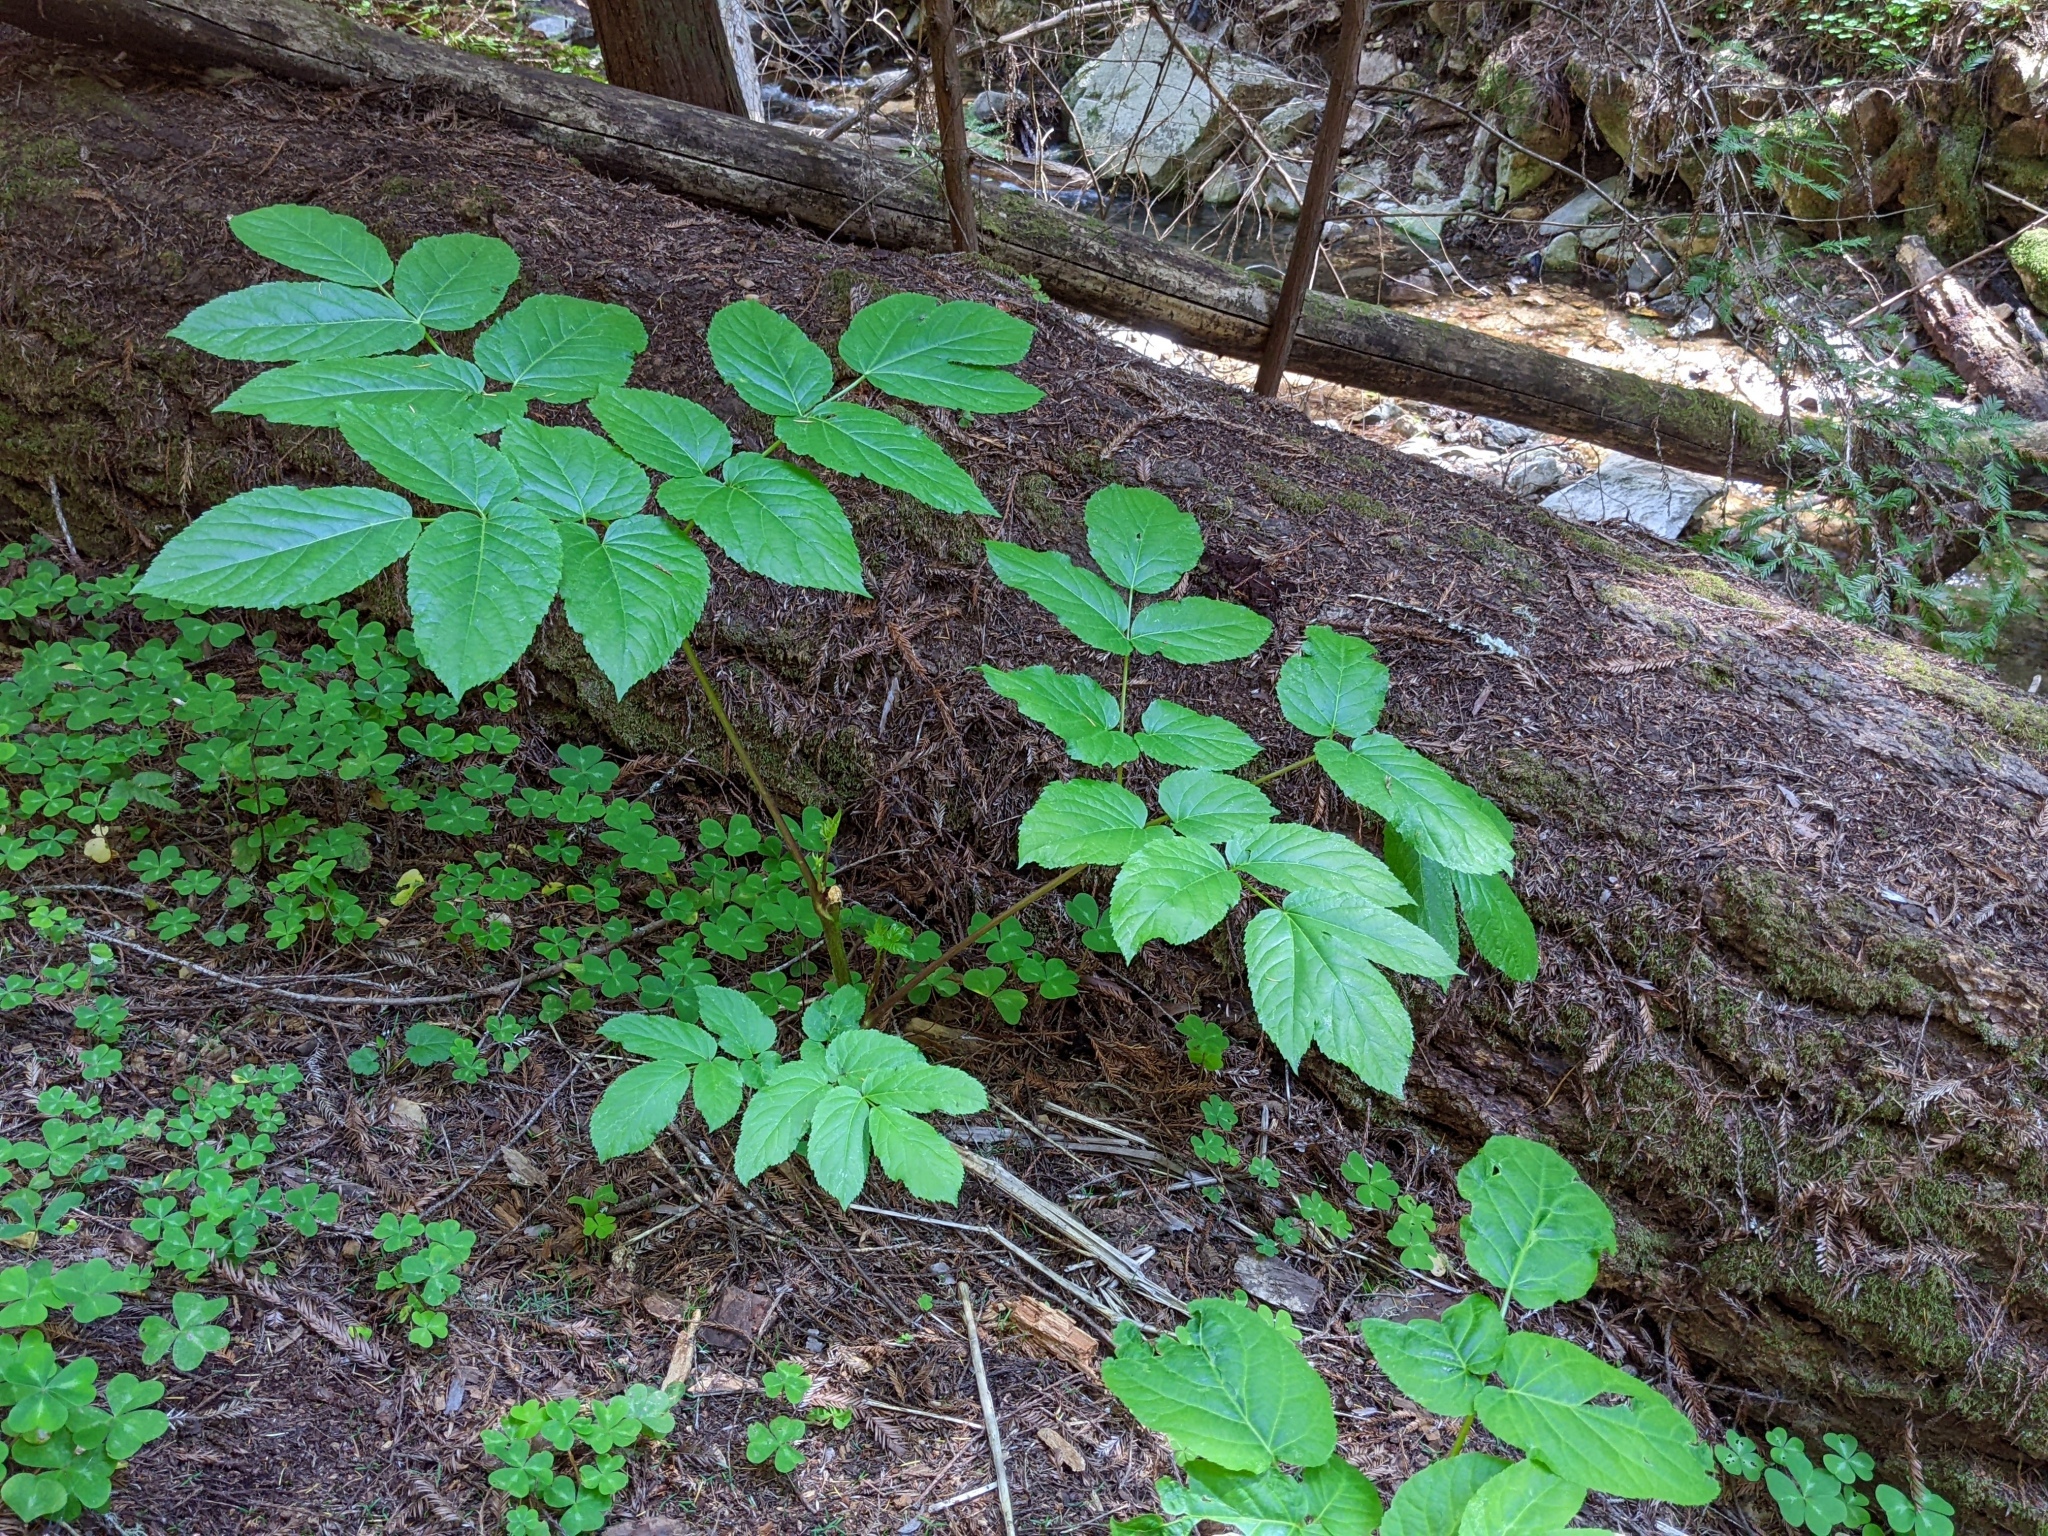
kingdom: Plantae
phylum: Tracheophyta
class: Magnoliopsida
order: Apiales
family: Araliaceae
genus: Aralia
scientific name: Aralia californica
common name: California-ginseng
